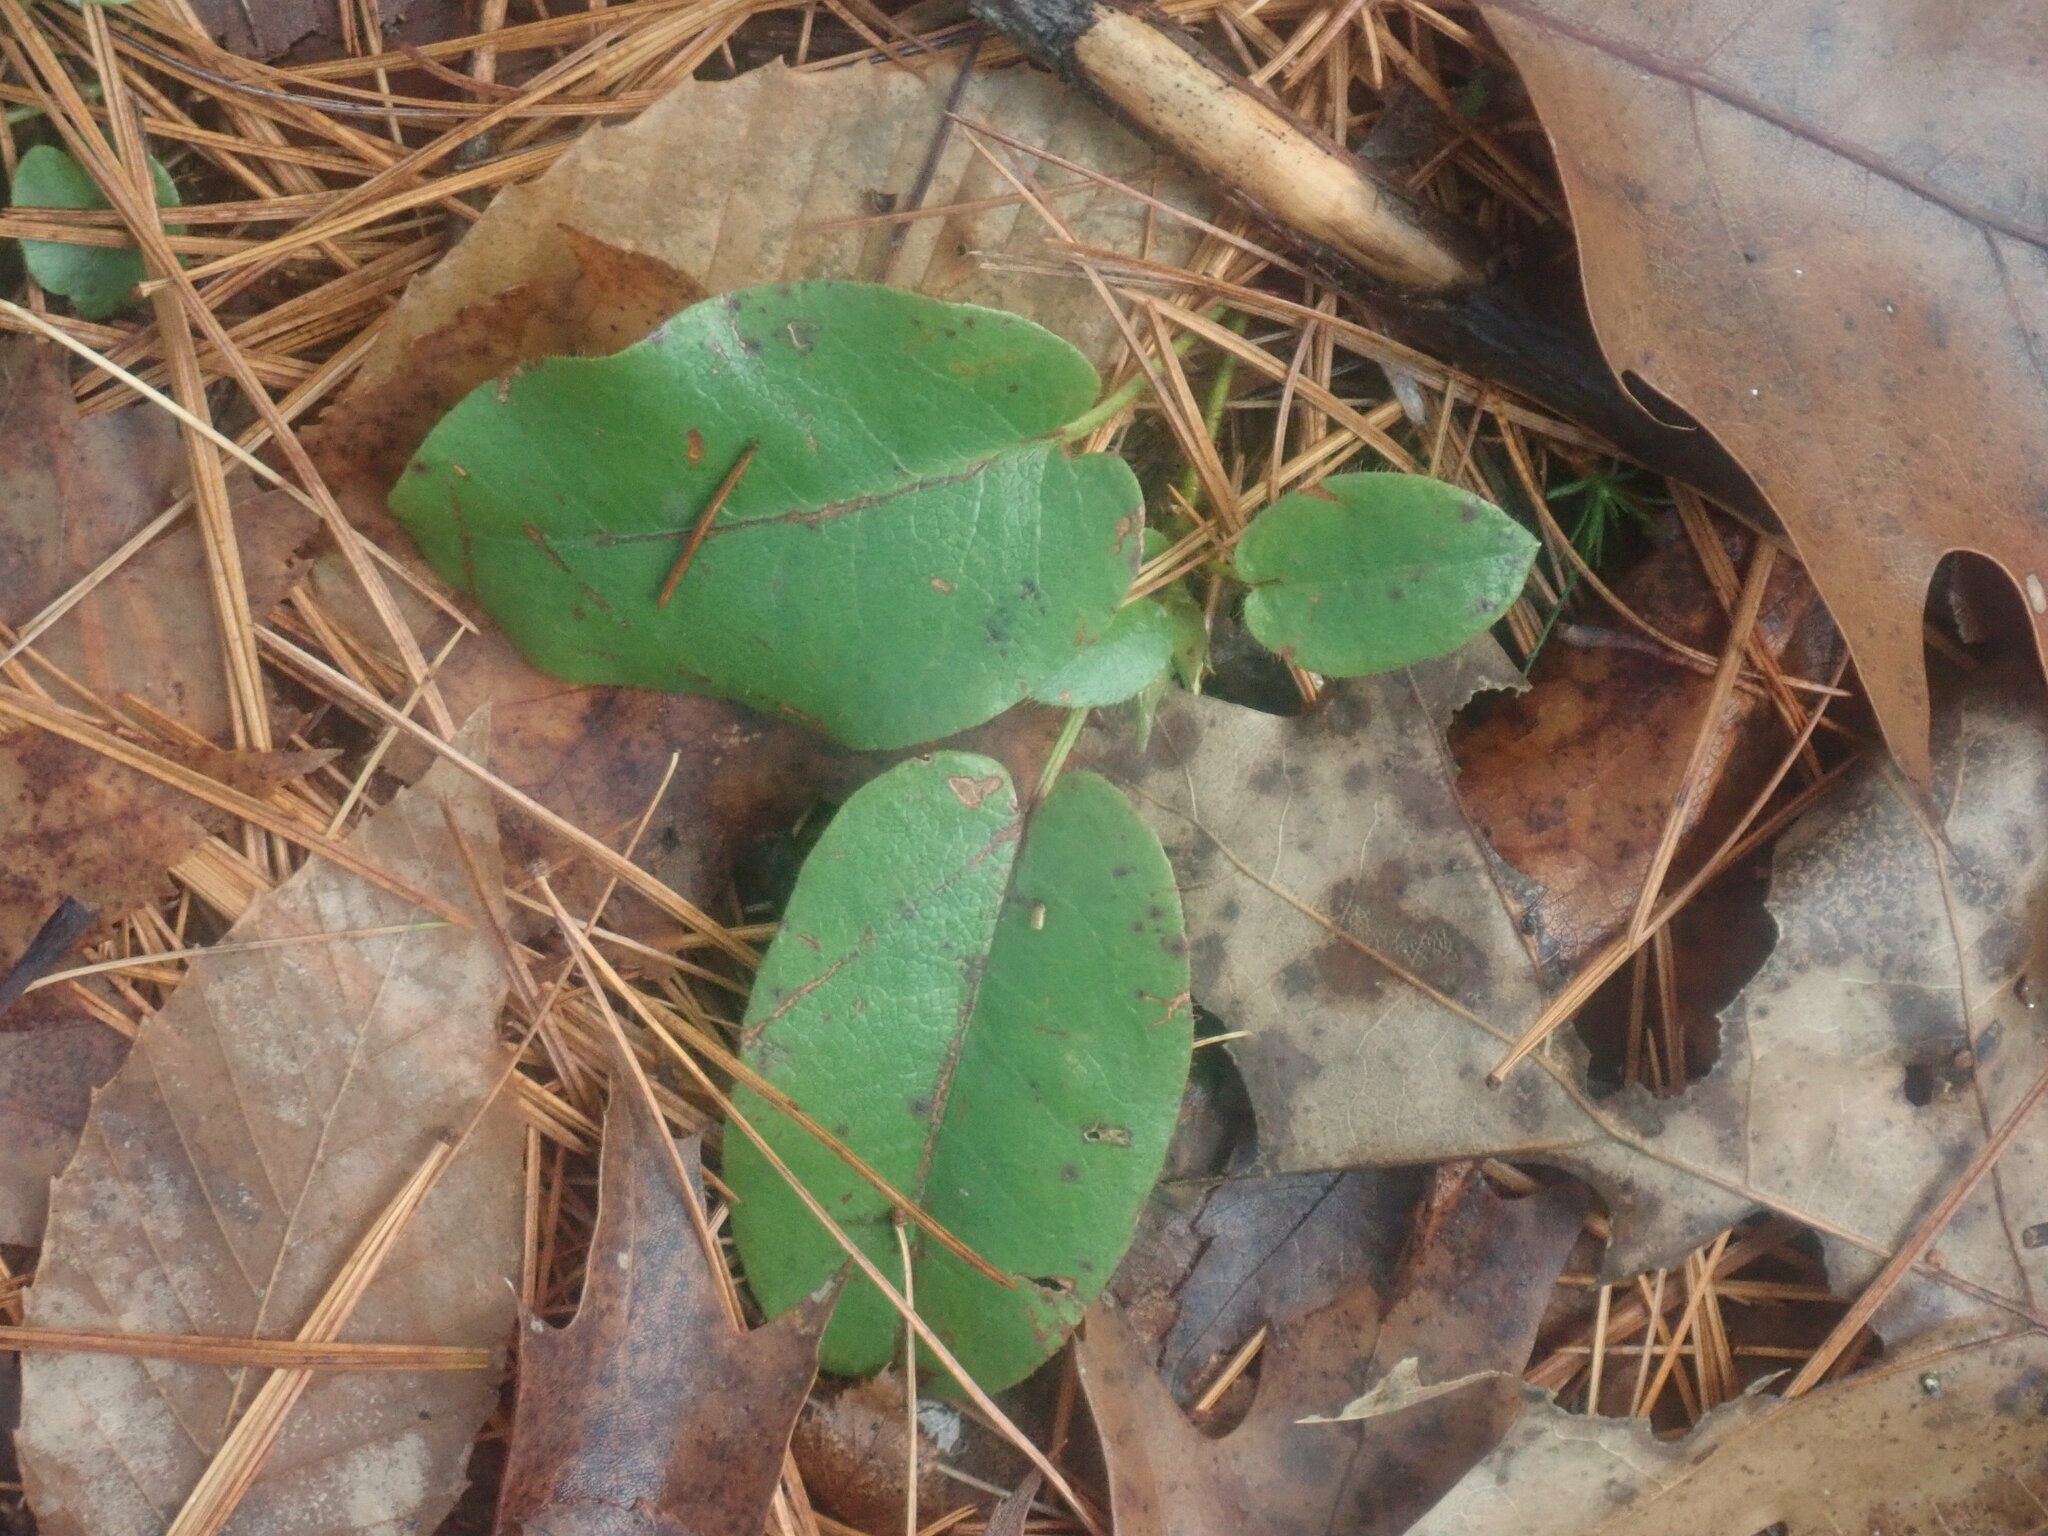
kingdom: Plantae
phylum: Tracheophyta
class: Magnoliopsida
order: Ericales
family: Ericaceae
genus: Epigaea
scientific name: Epigaea repens
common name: Gravelroot
